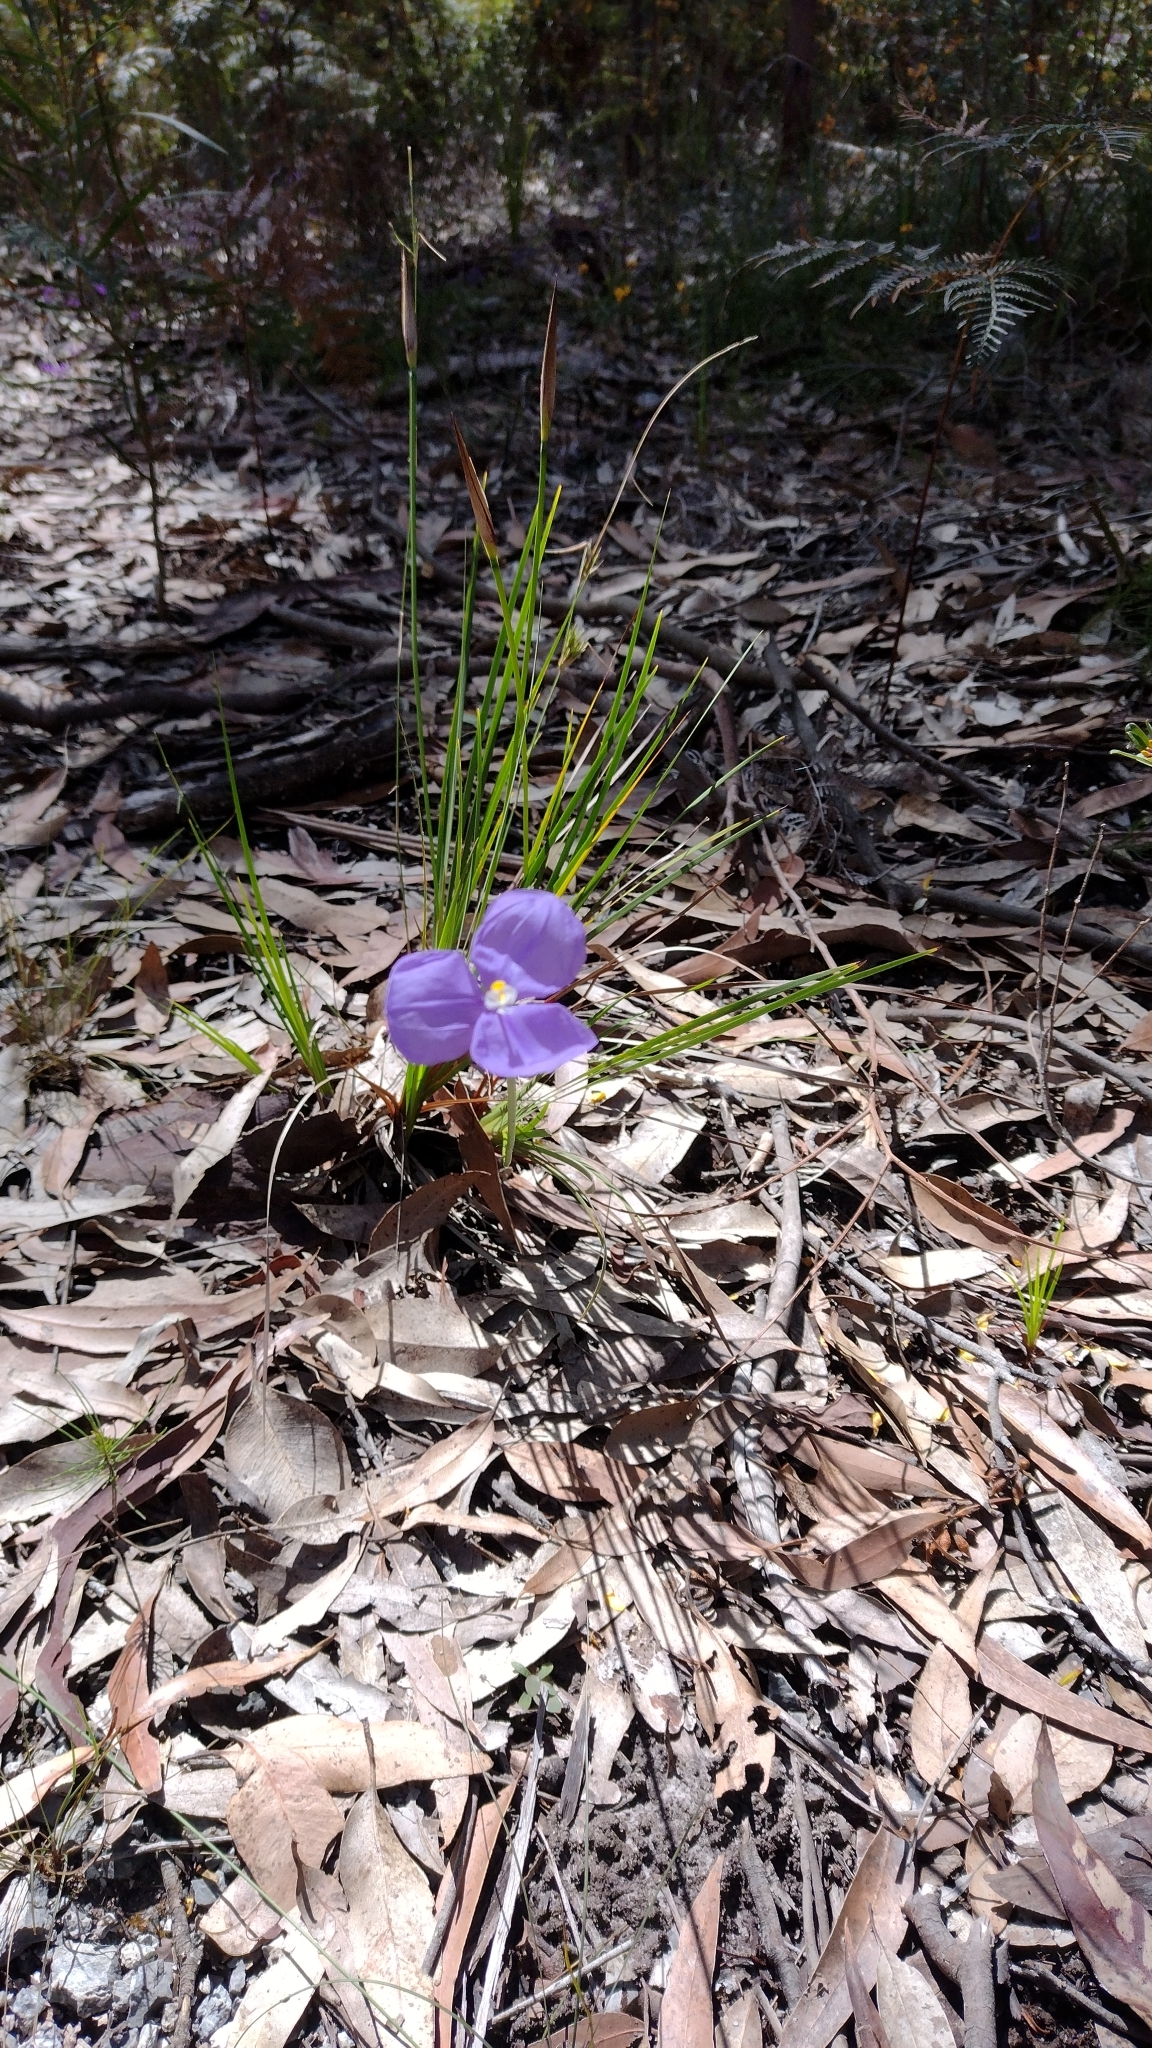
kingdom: Plantae
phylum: Tracheophyta
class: Liliopsida
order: Asparagales
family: Iridaceae
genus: Patersonia
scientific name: Patersonia glabrata
